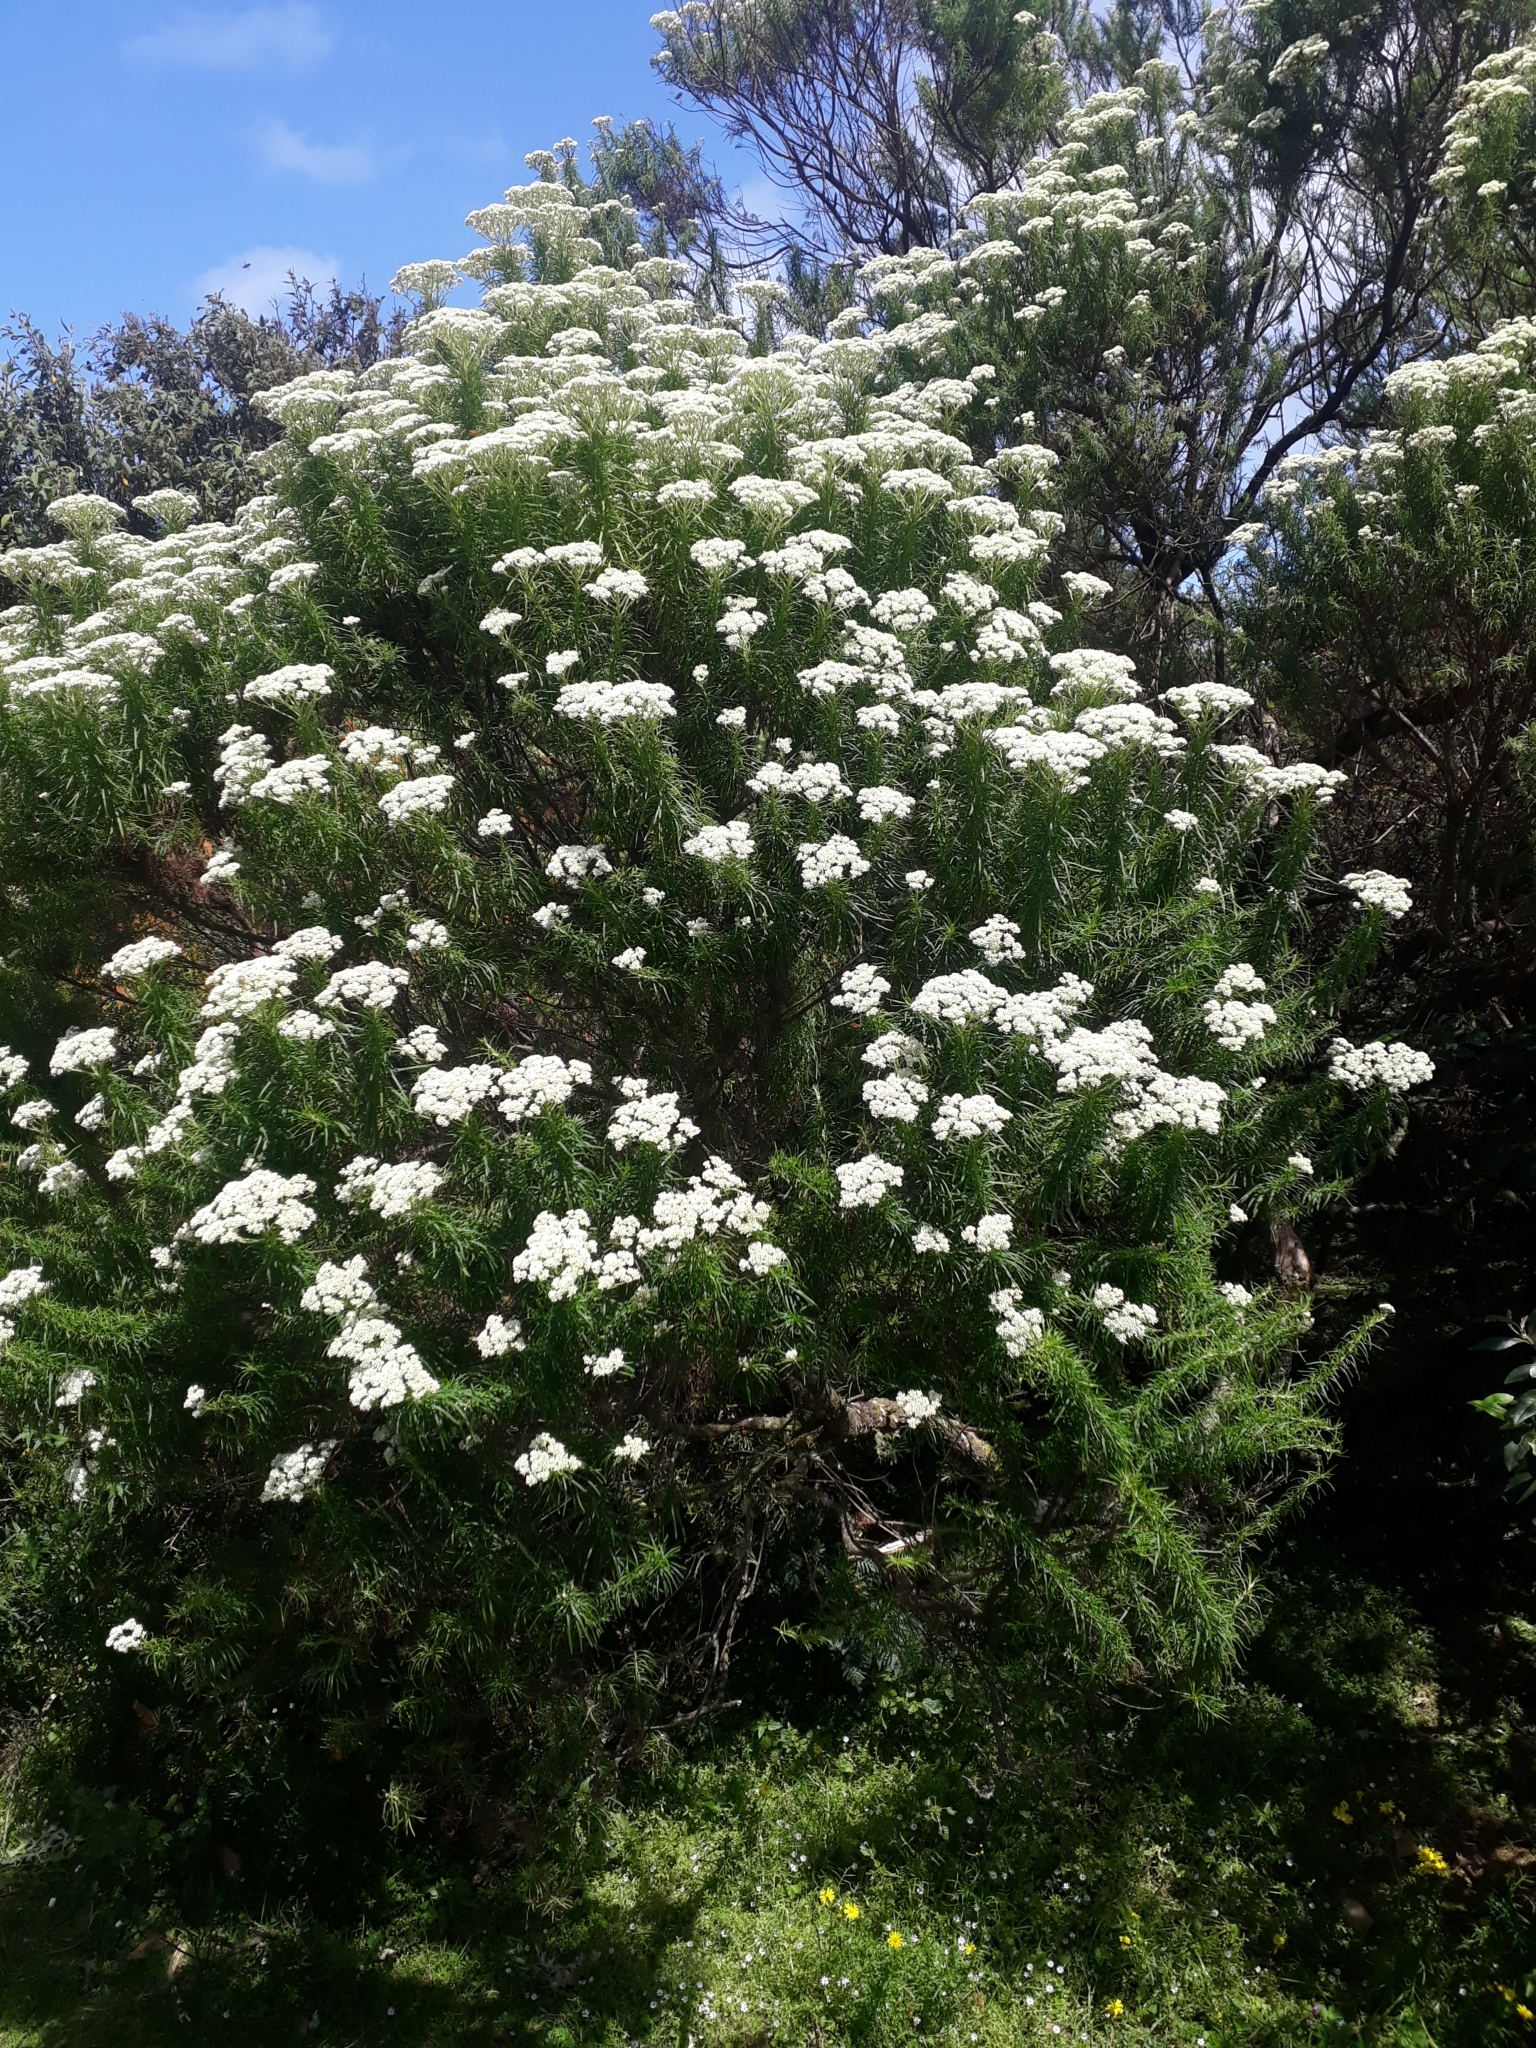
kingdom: Plantae
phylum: Tracheophyta
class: Magnoliopsida
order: Asterales
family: Asteraceae
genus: Cassinia
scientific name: Cassinia longifolia
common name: Longleaf-dogwood
